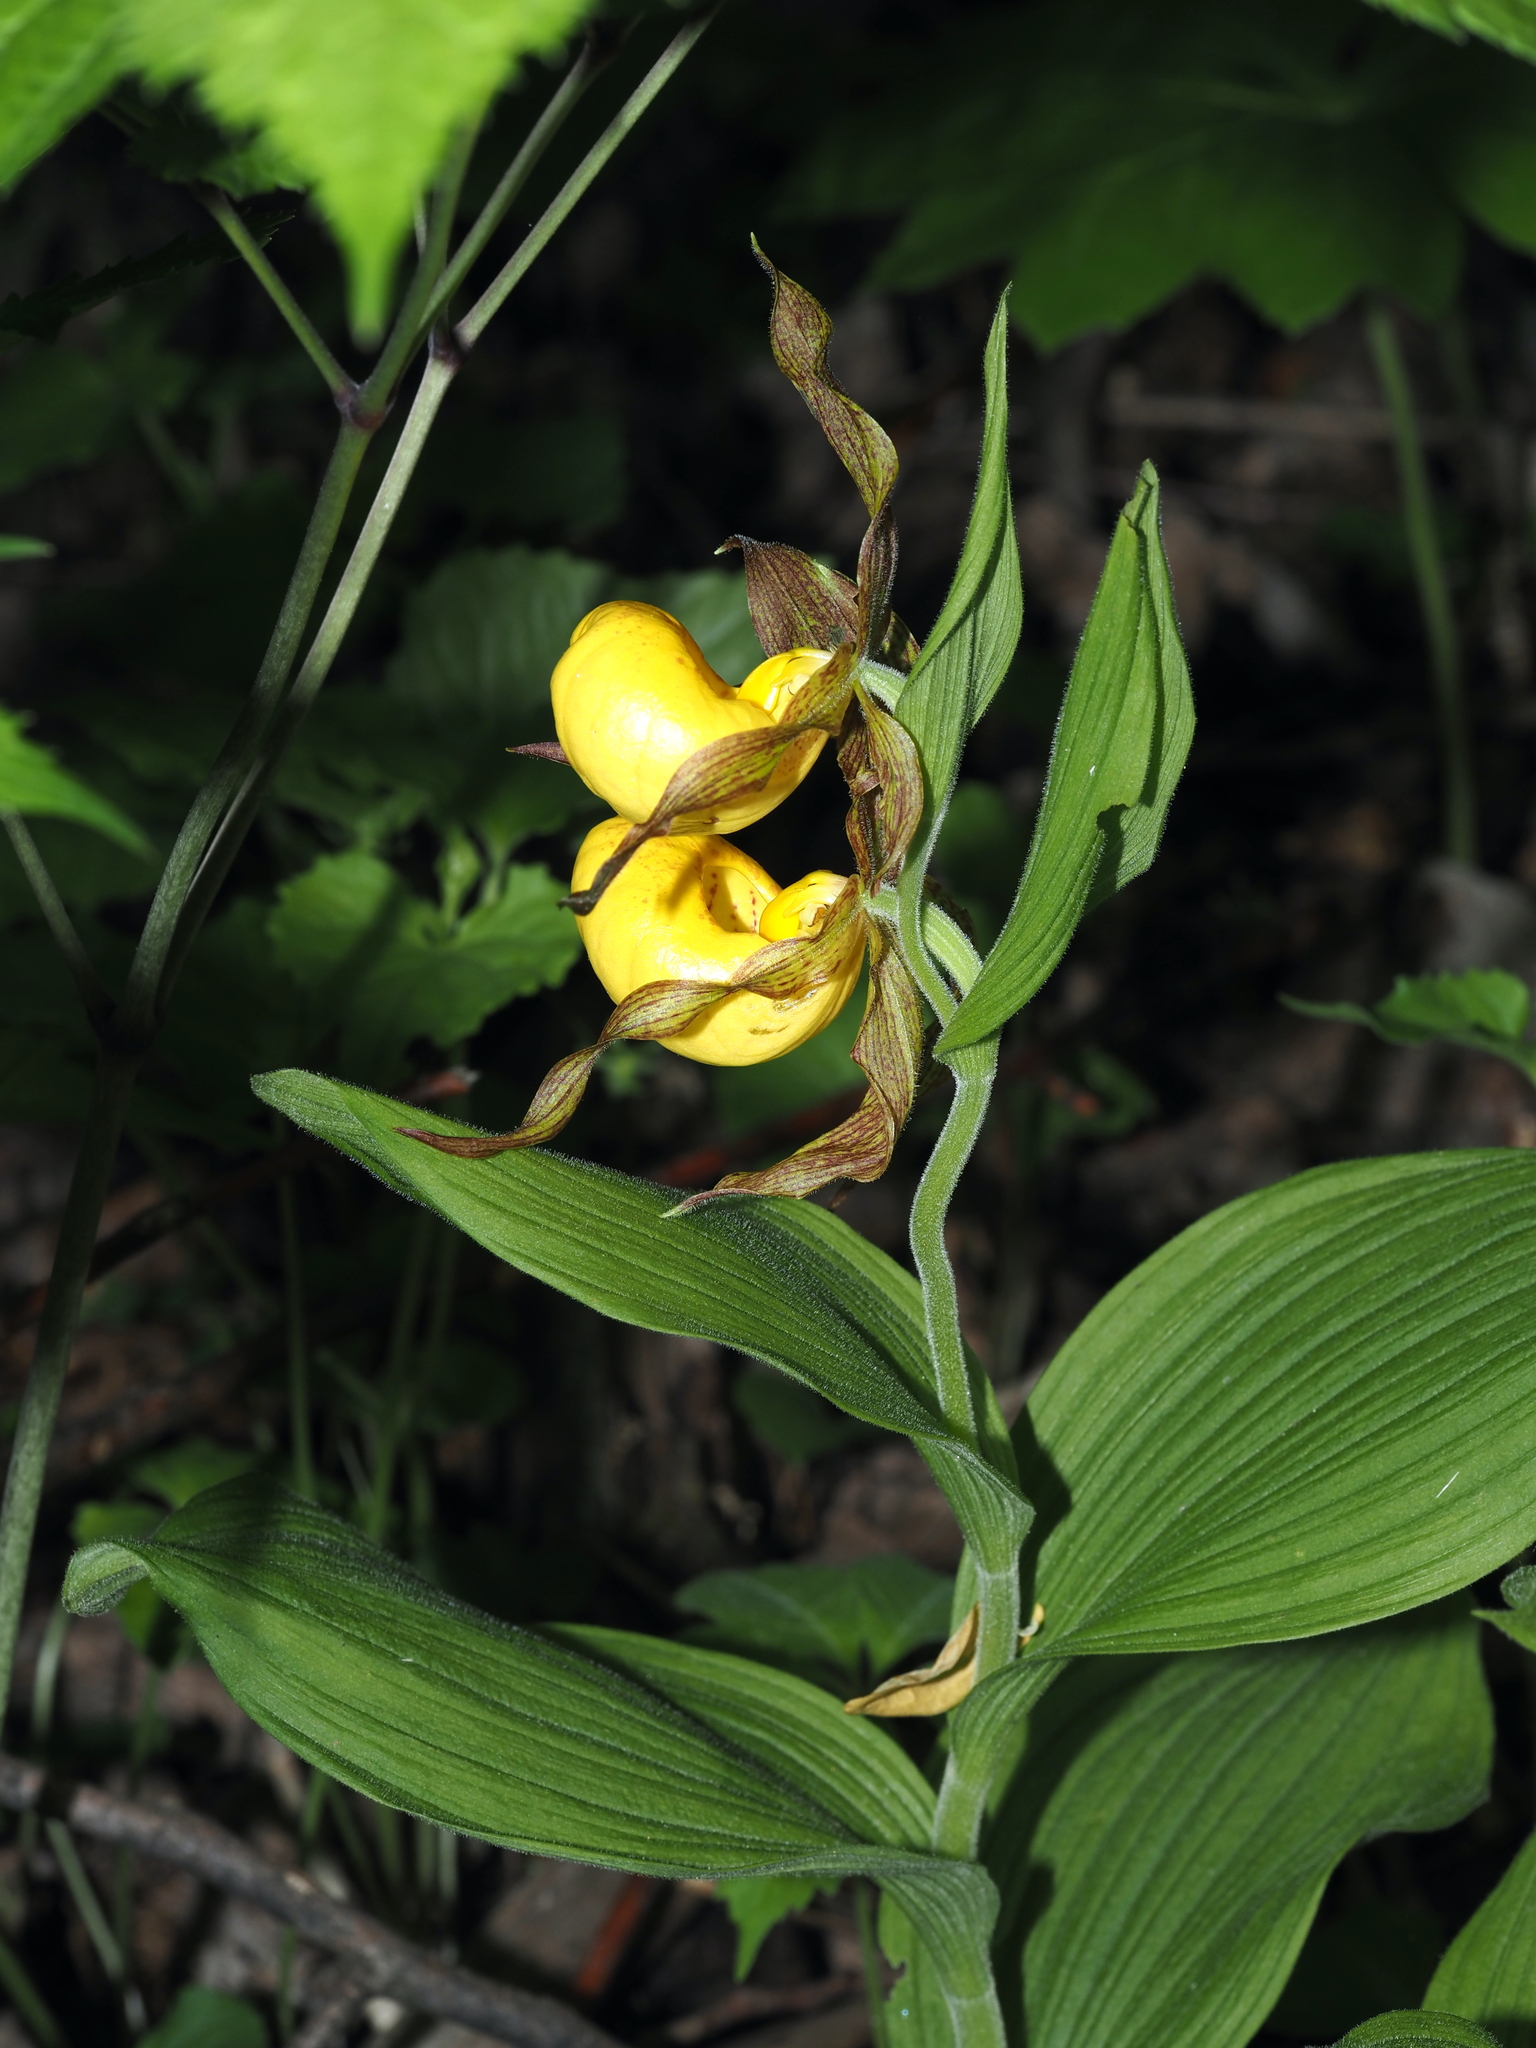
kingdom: Plantae
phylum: Tracheophyta
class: Liliopsida
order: Asparagales
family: Orchidaceae
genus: Cypripedium
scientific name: Cypripedium parviflorum
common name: American yellow lady's-slipper
